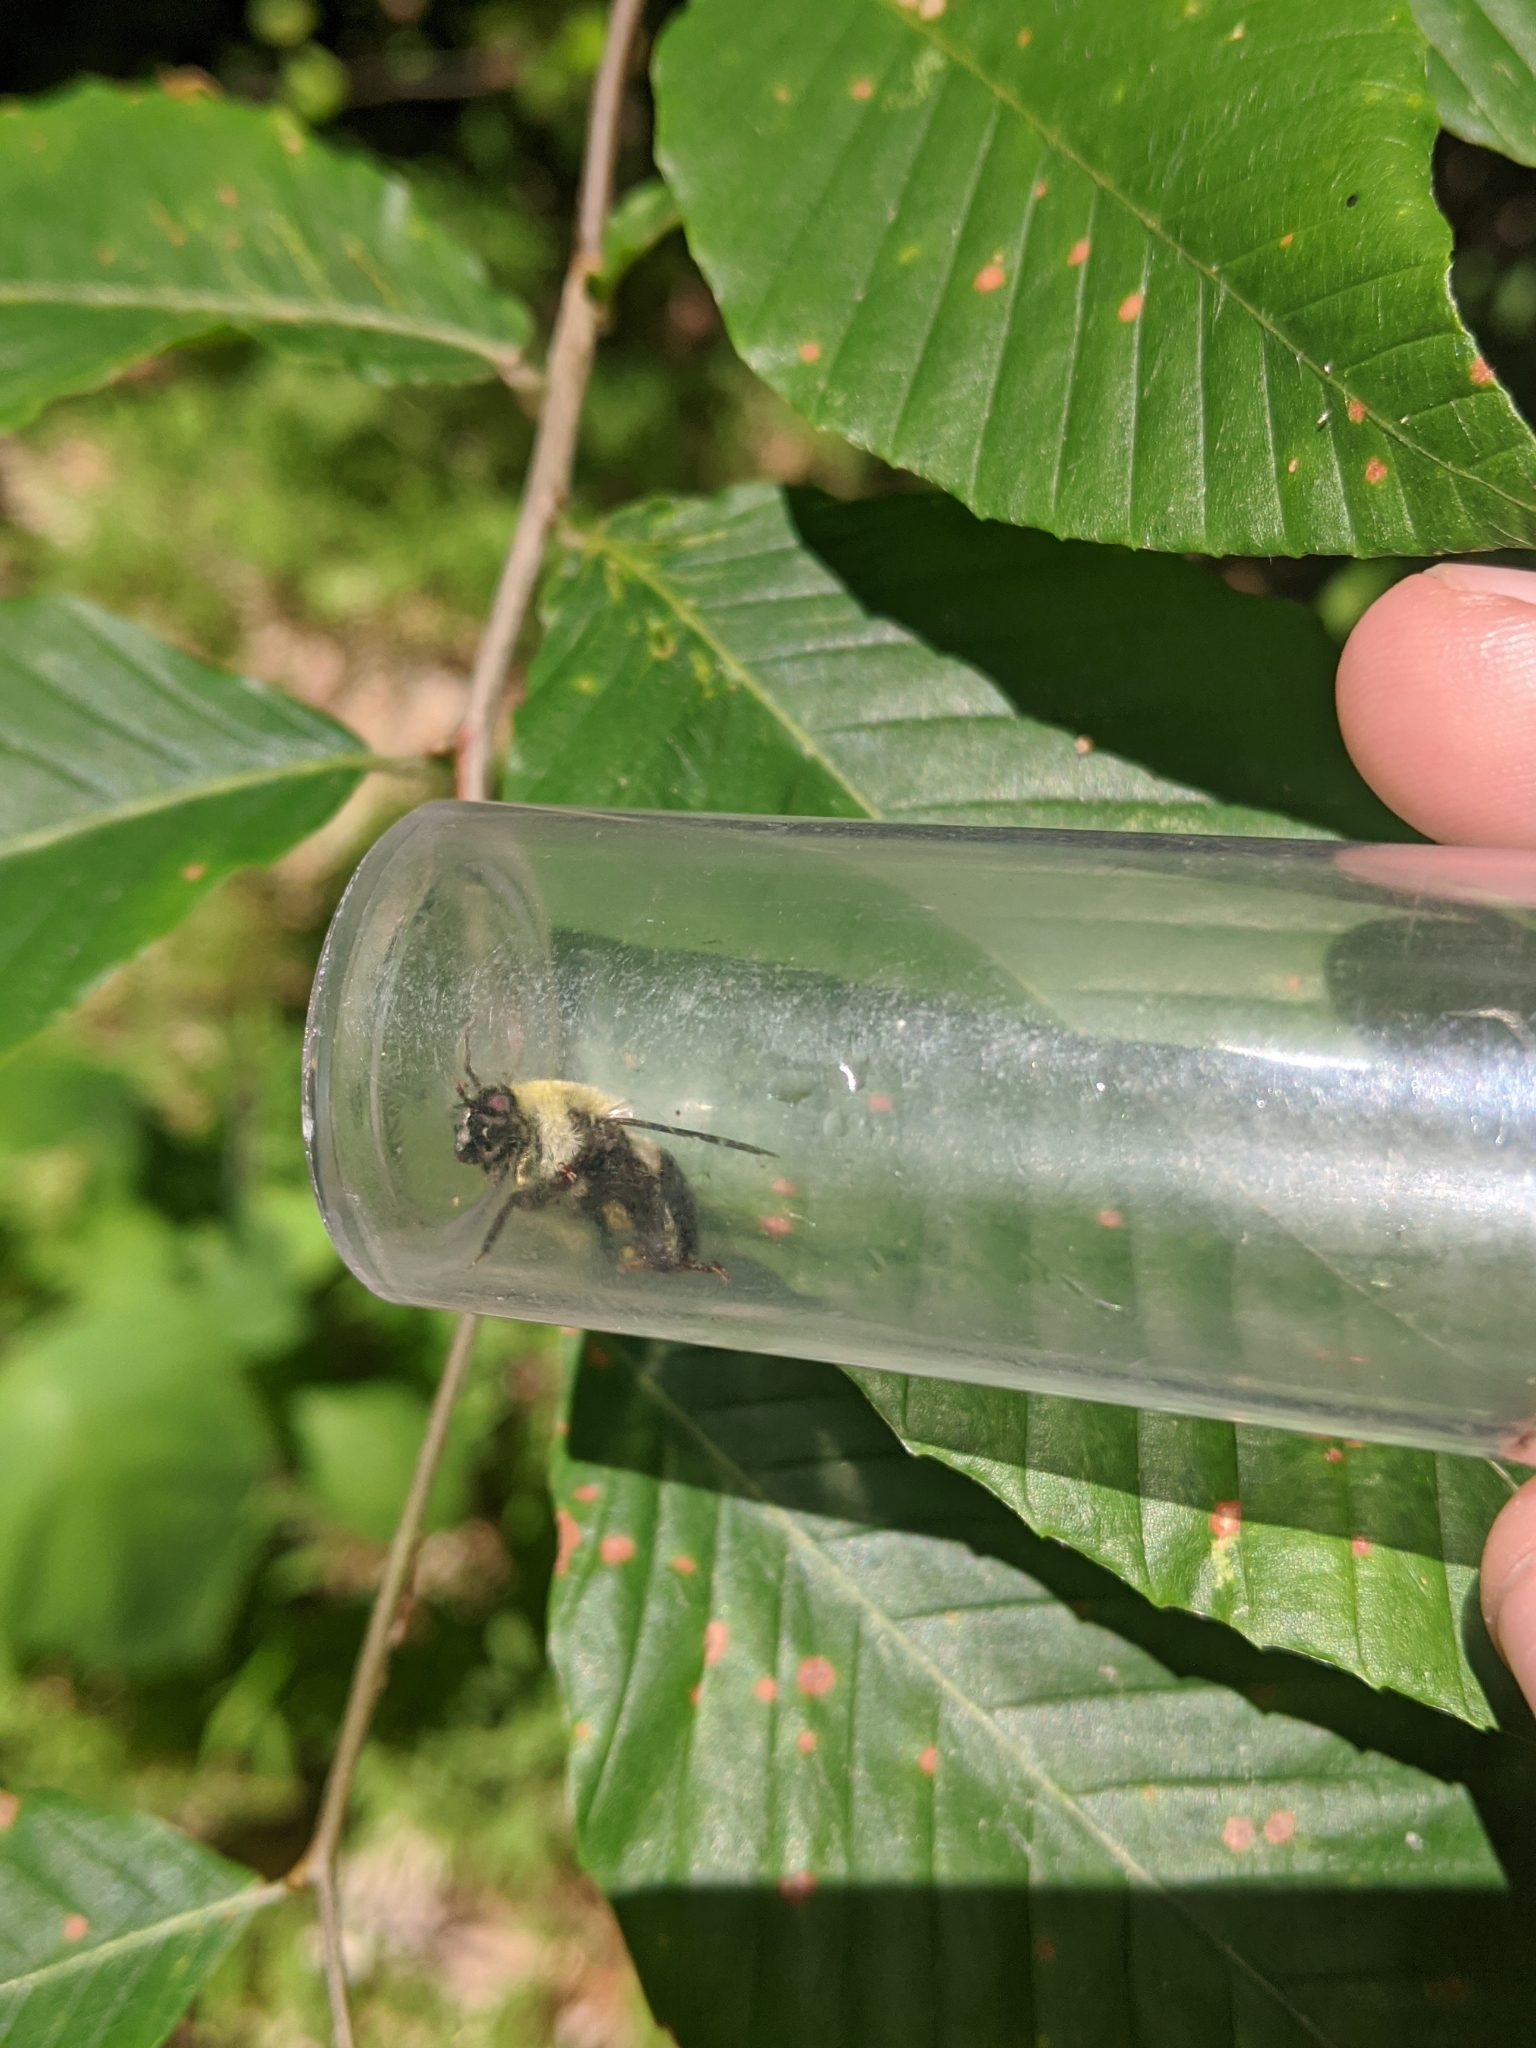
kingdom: Animalia
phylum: Arthropoda
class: Insecta
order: Diptera
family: Syrphidae
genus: Imatisma
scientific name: Imatisma posticata
